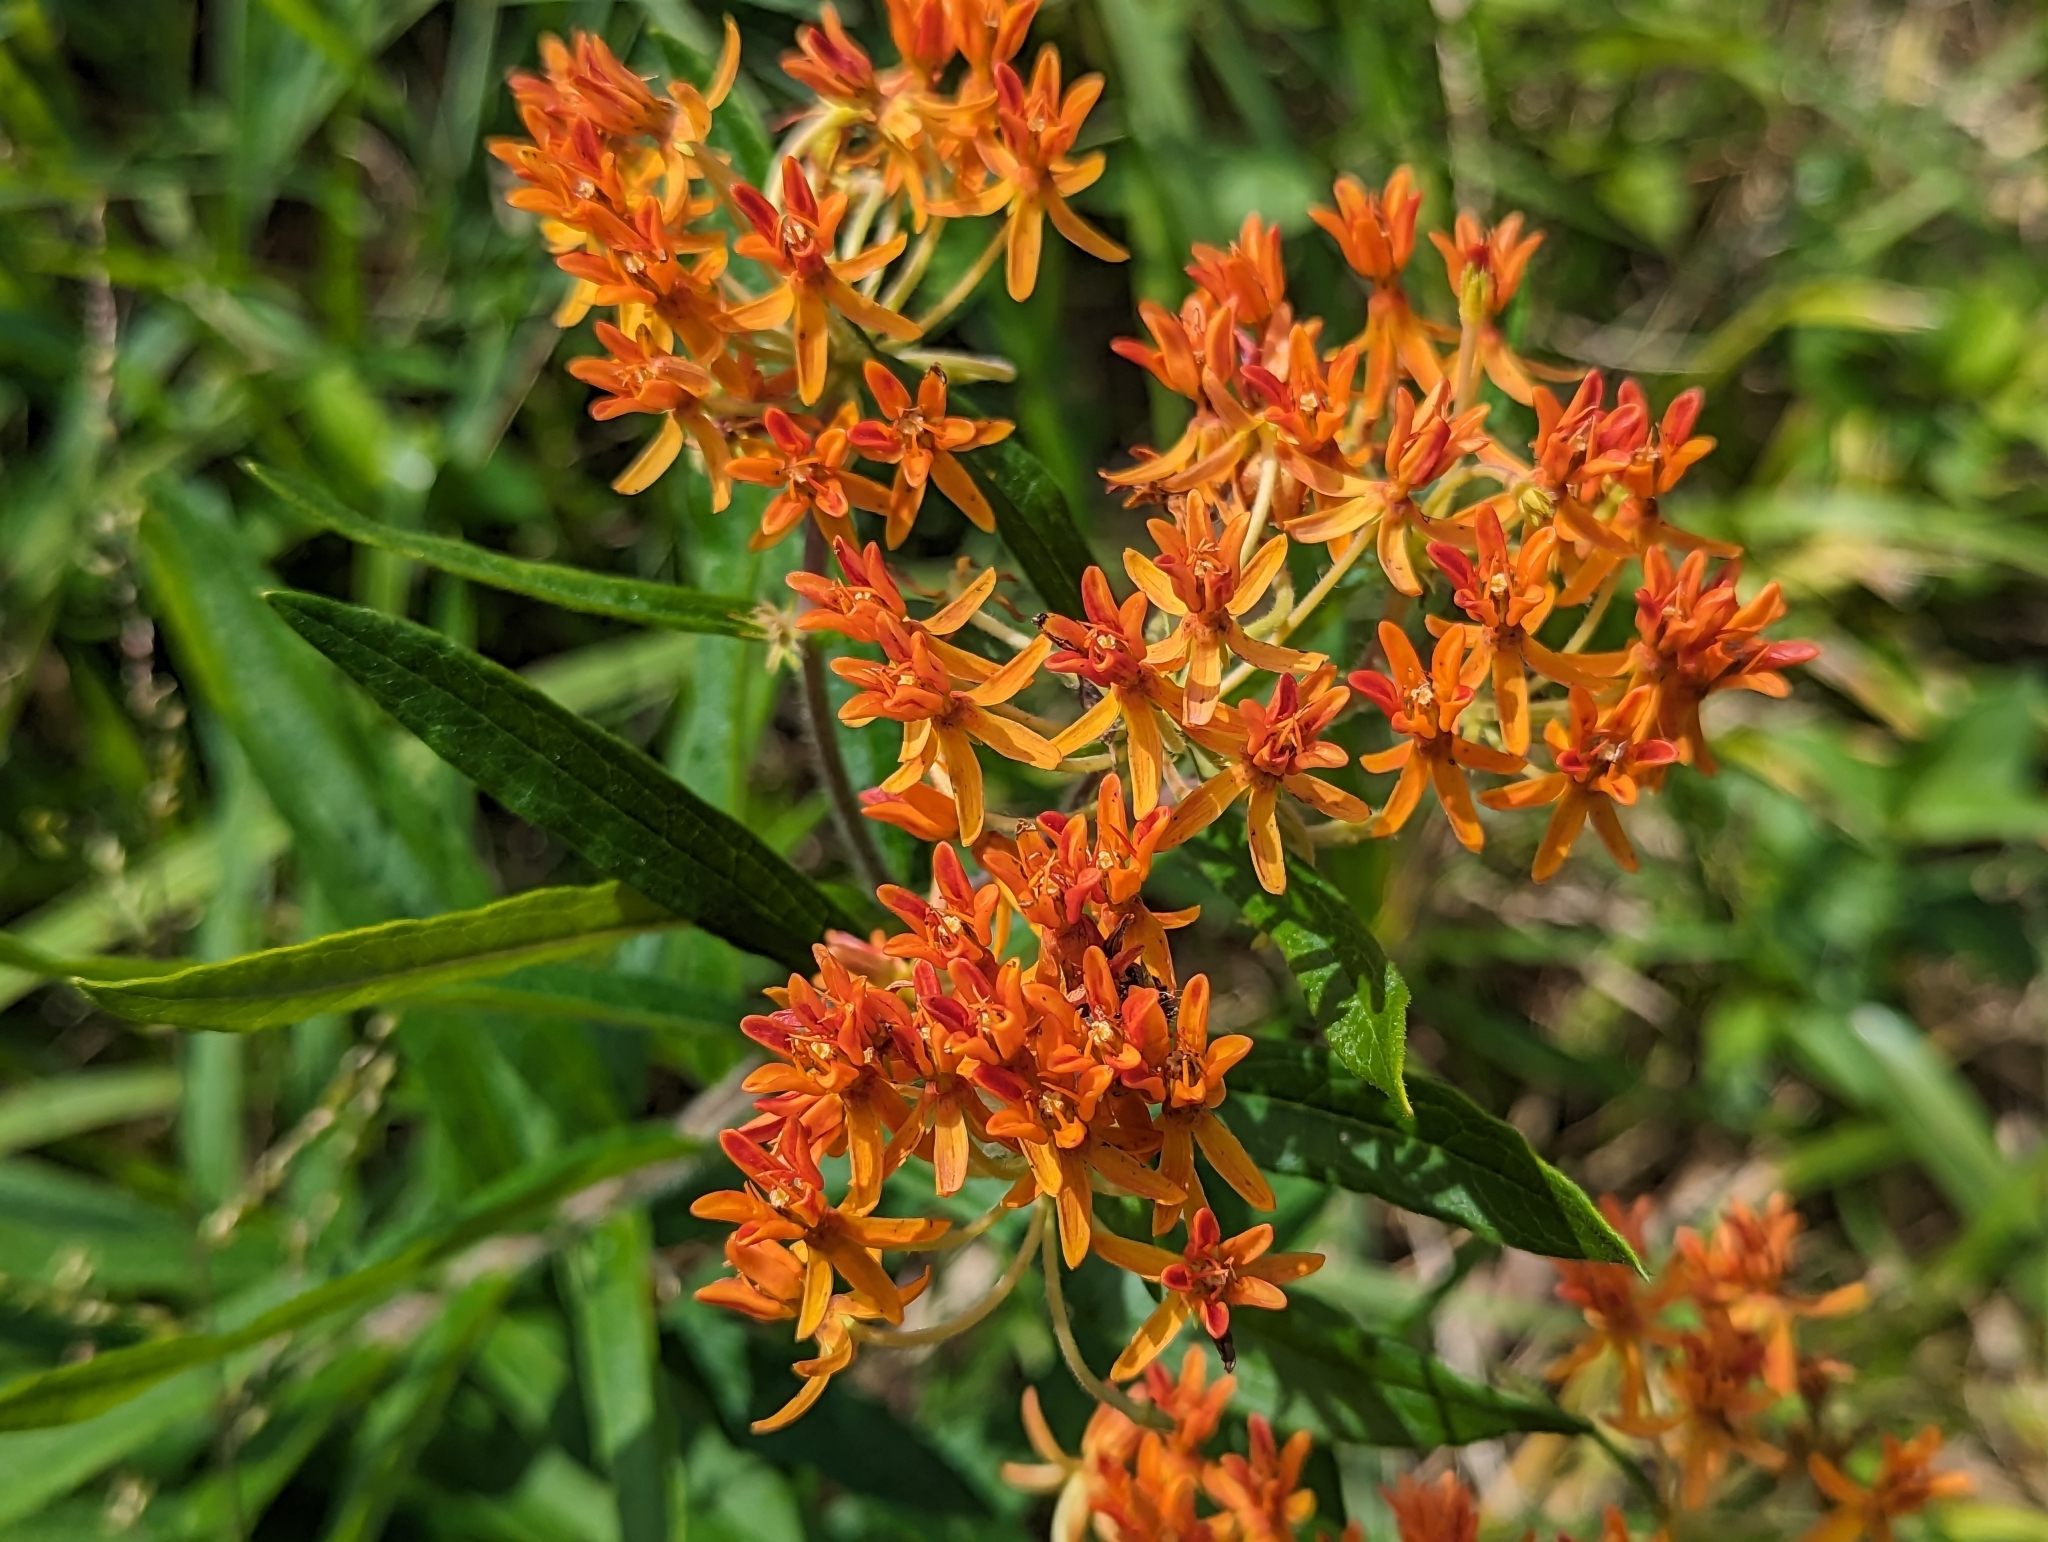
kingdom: Plantae
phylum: Tracheophyta
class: Magnoliopsida
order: Gentianales
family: Apocynaceae
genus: Asclepias
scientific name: Asclepias tuberosa
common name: Butterfly milkweed
